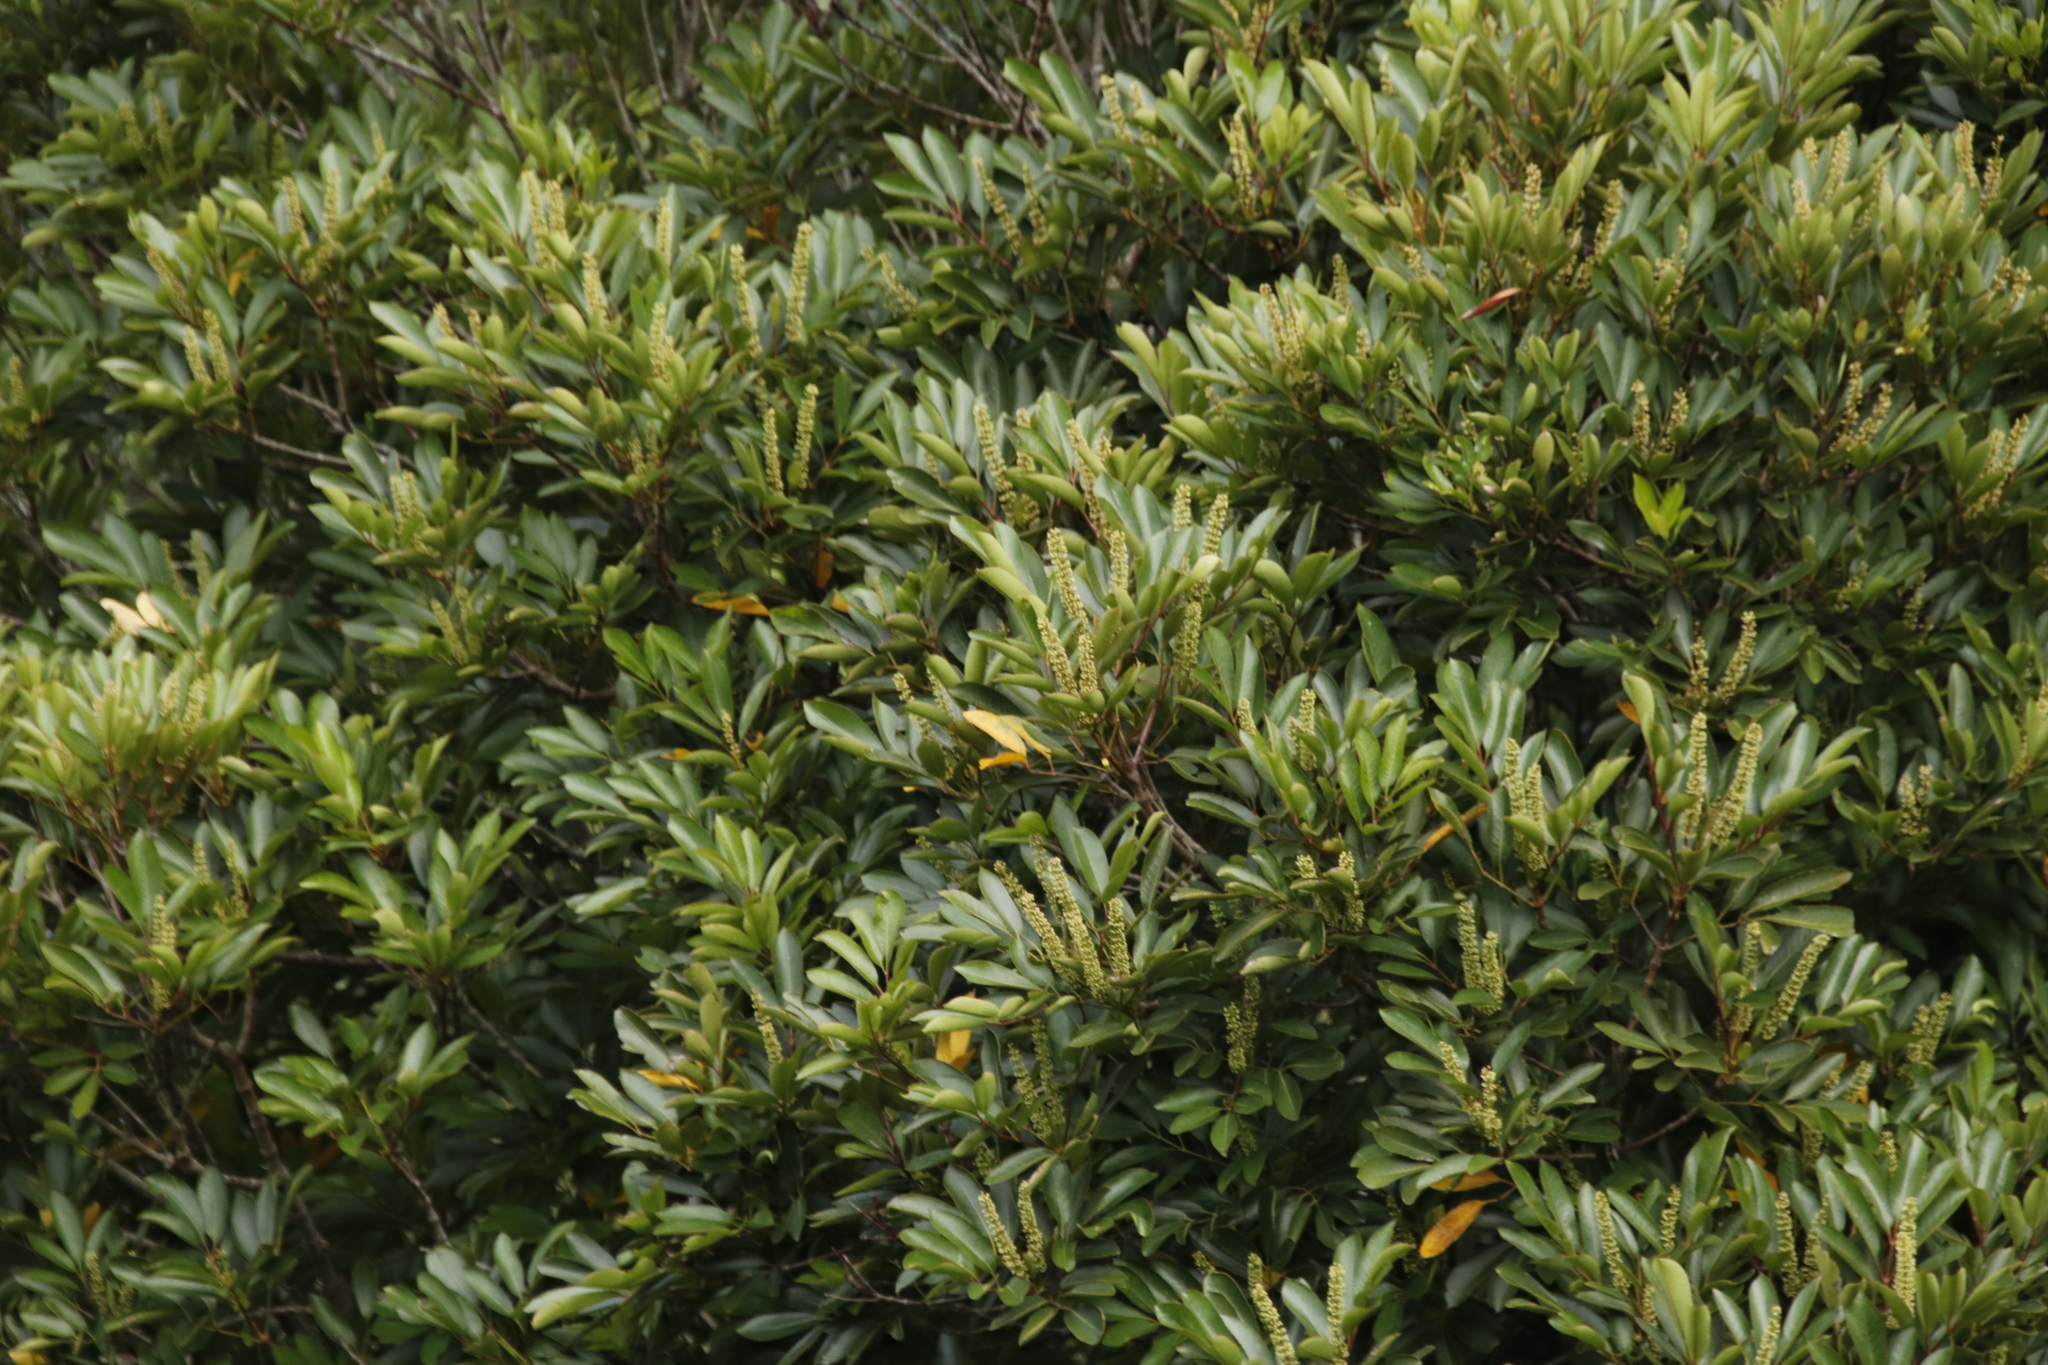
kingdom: Plantae
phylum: Tracheophyta
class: Magnoliopsida
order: Oxalidales
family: Cunoniaceae
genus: Cunonia
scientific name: Cunonia capensis
